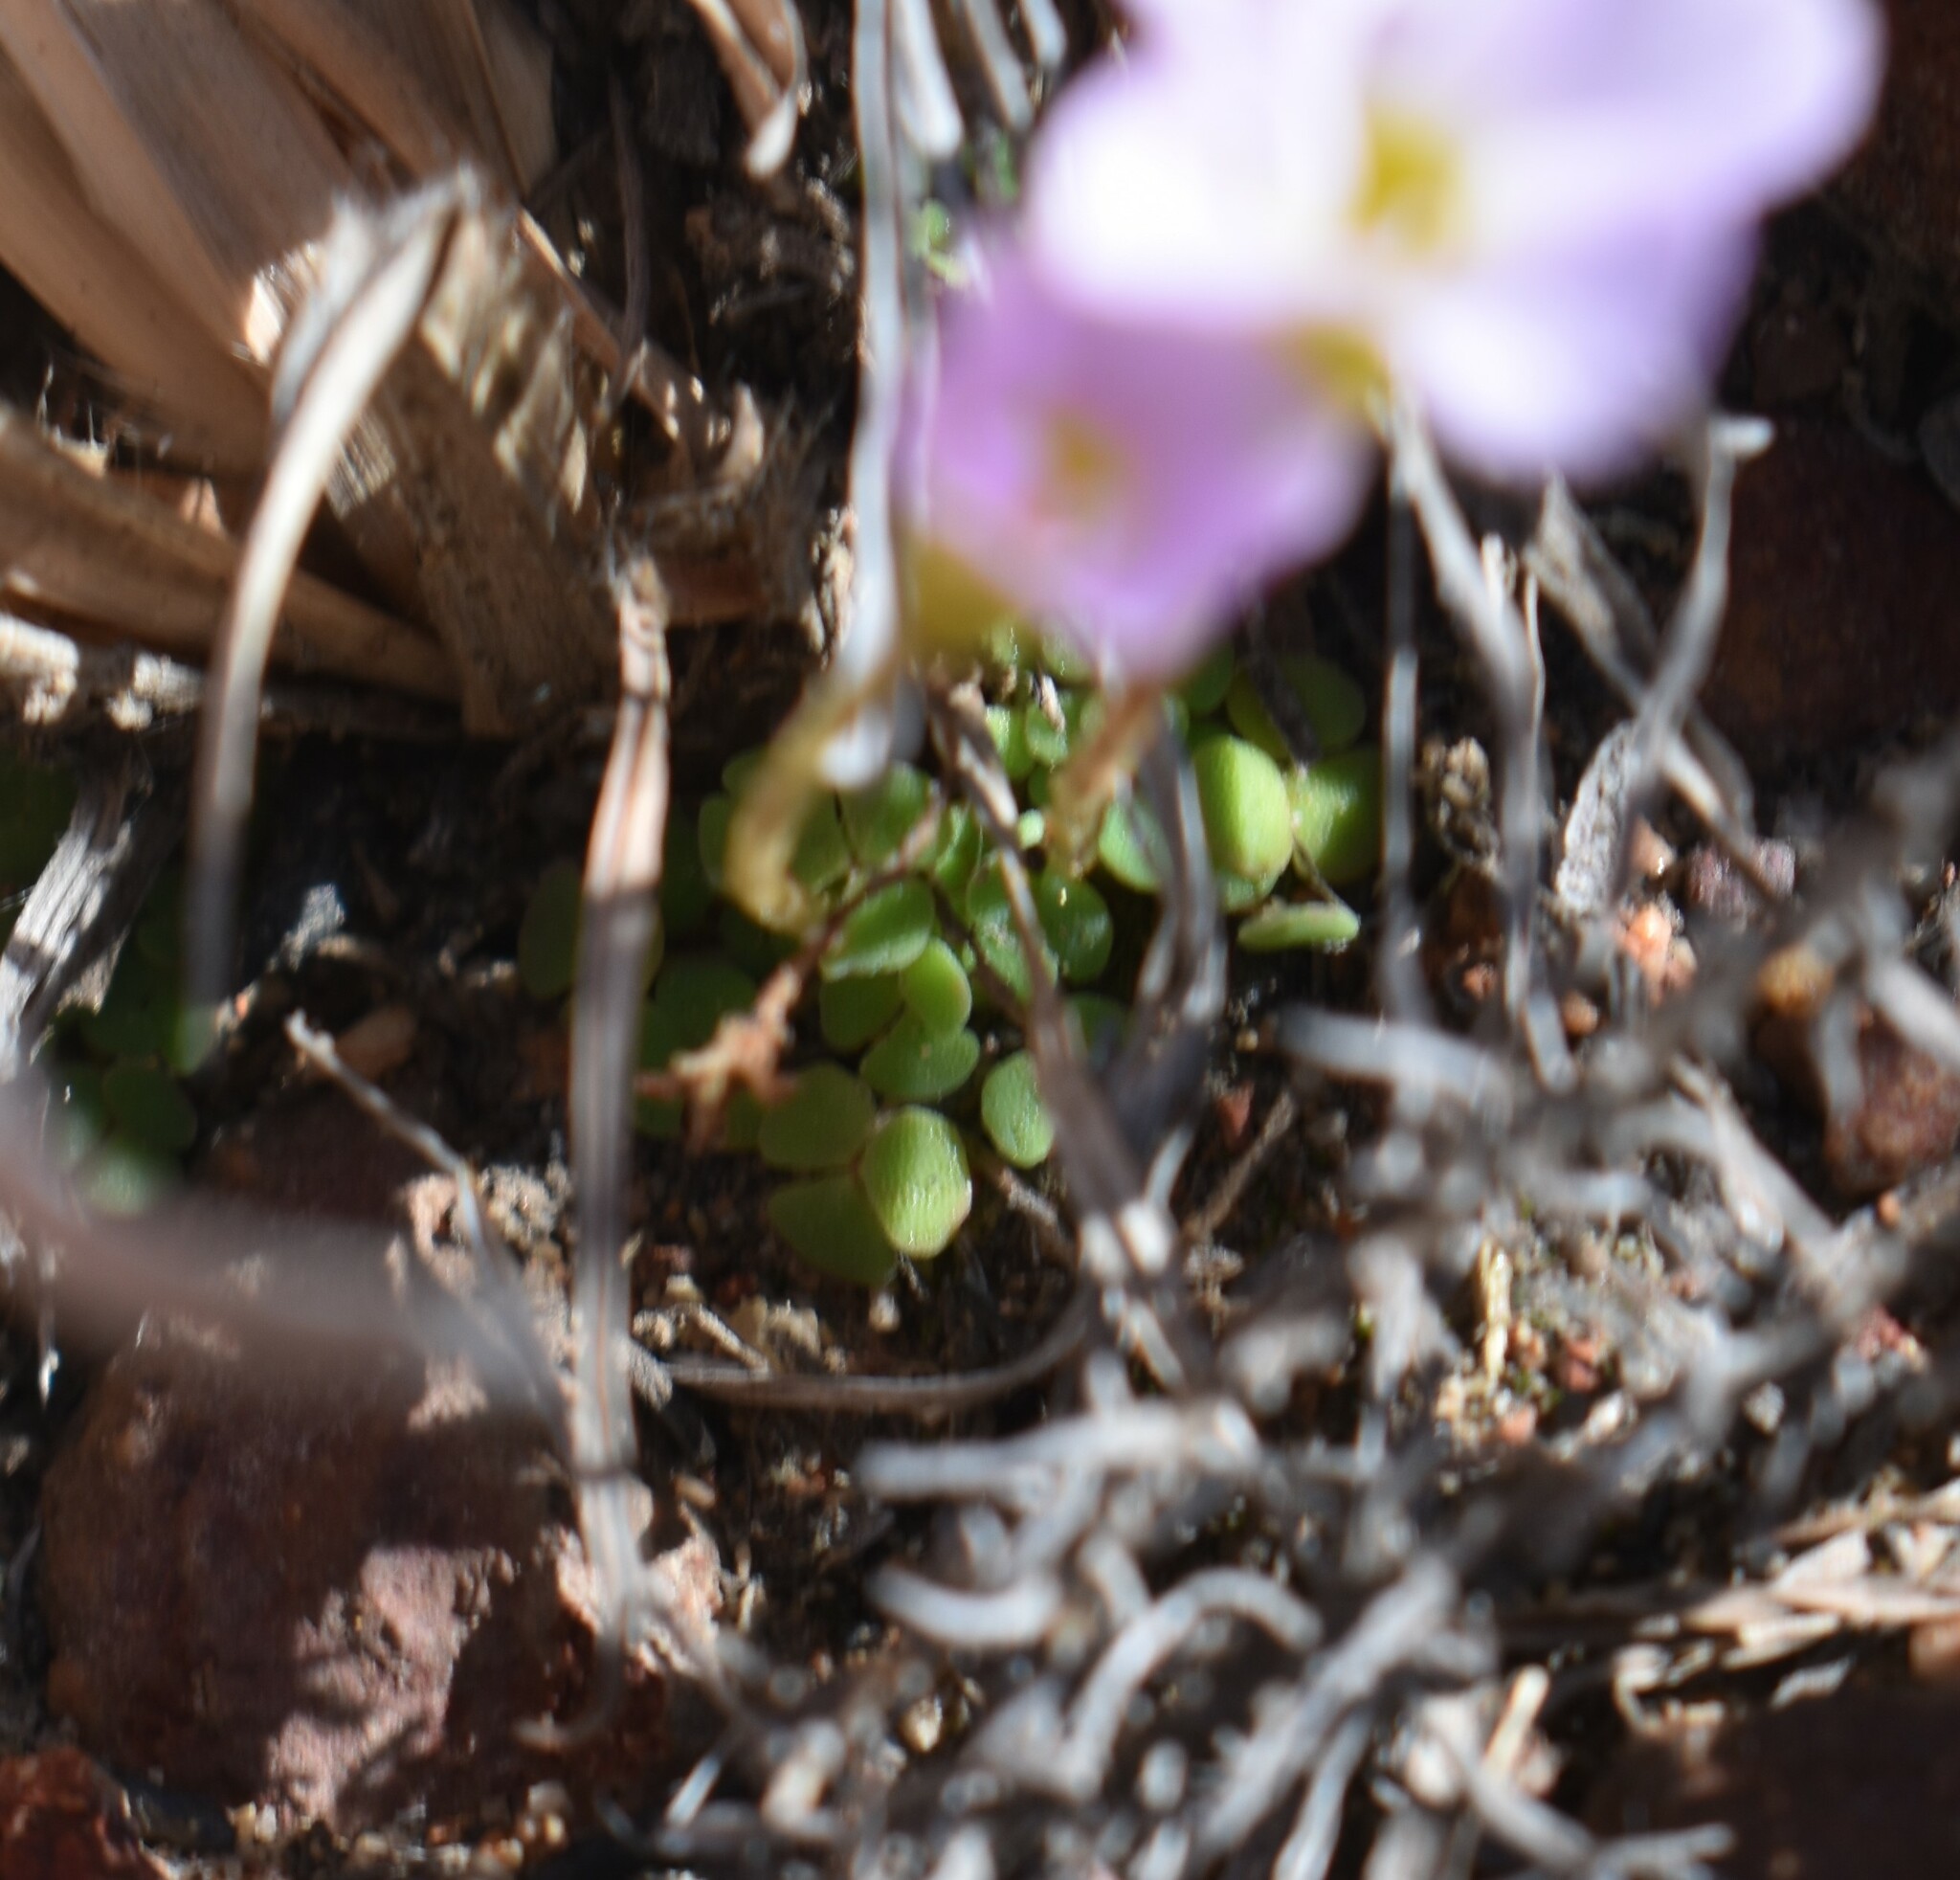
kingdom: Plantae
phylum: Tracheophyta
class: Magnoliopsida
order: Oxalidales
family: Oxalidaceae
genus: Oxalis
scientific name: Oxalis fergusoniae
